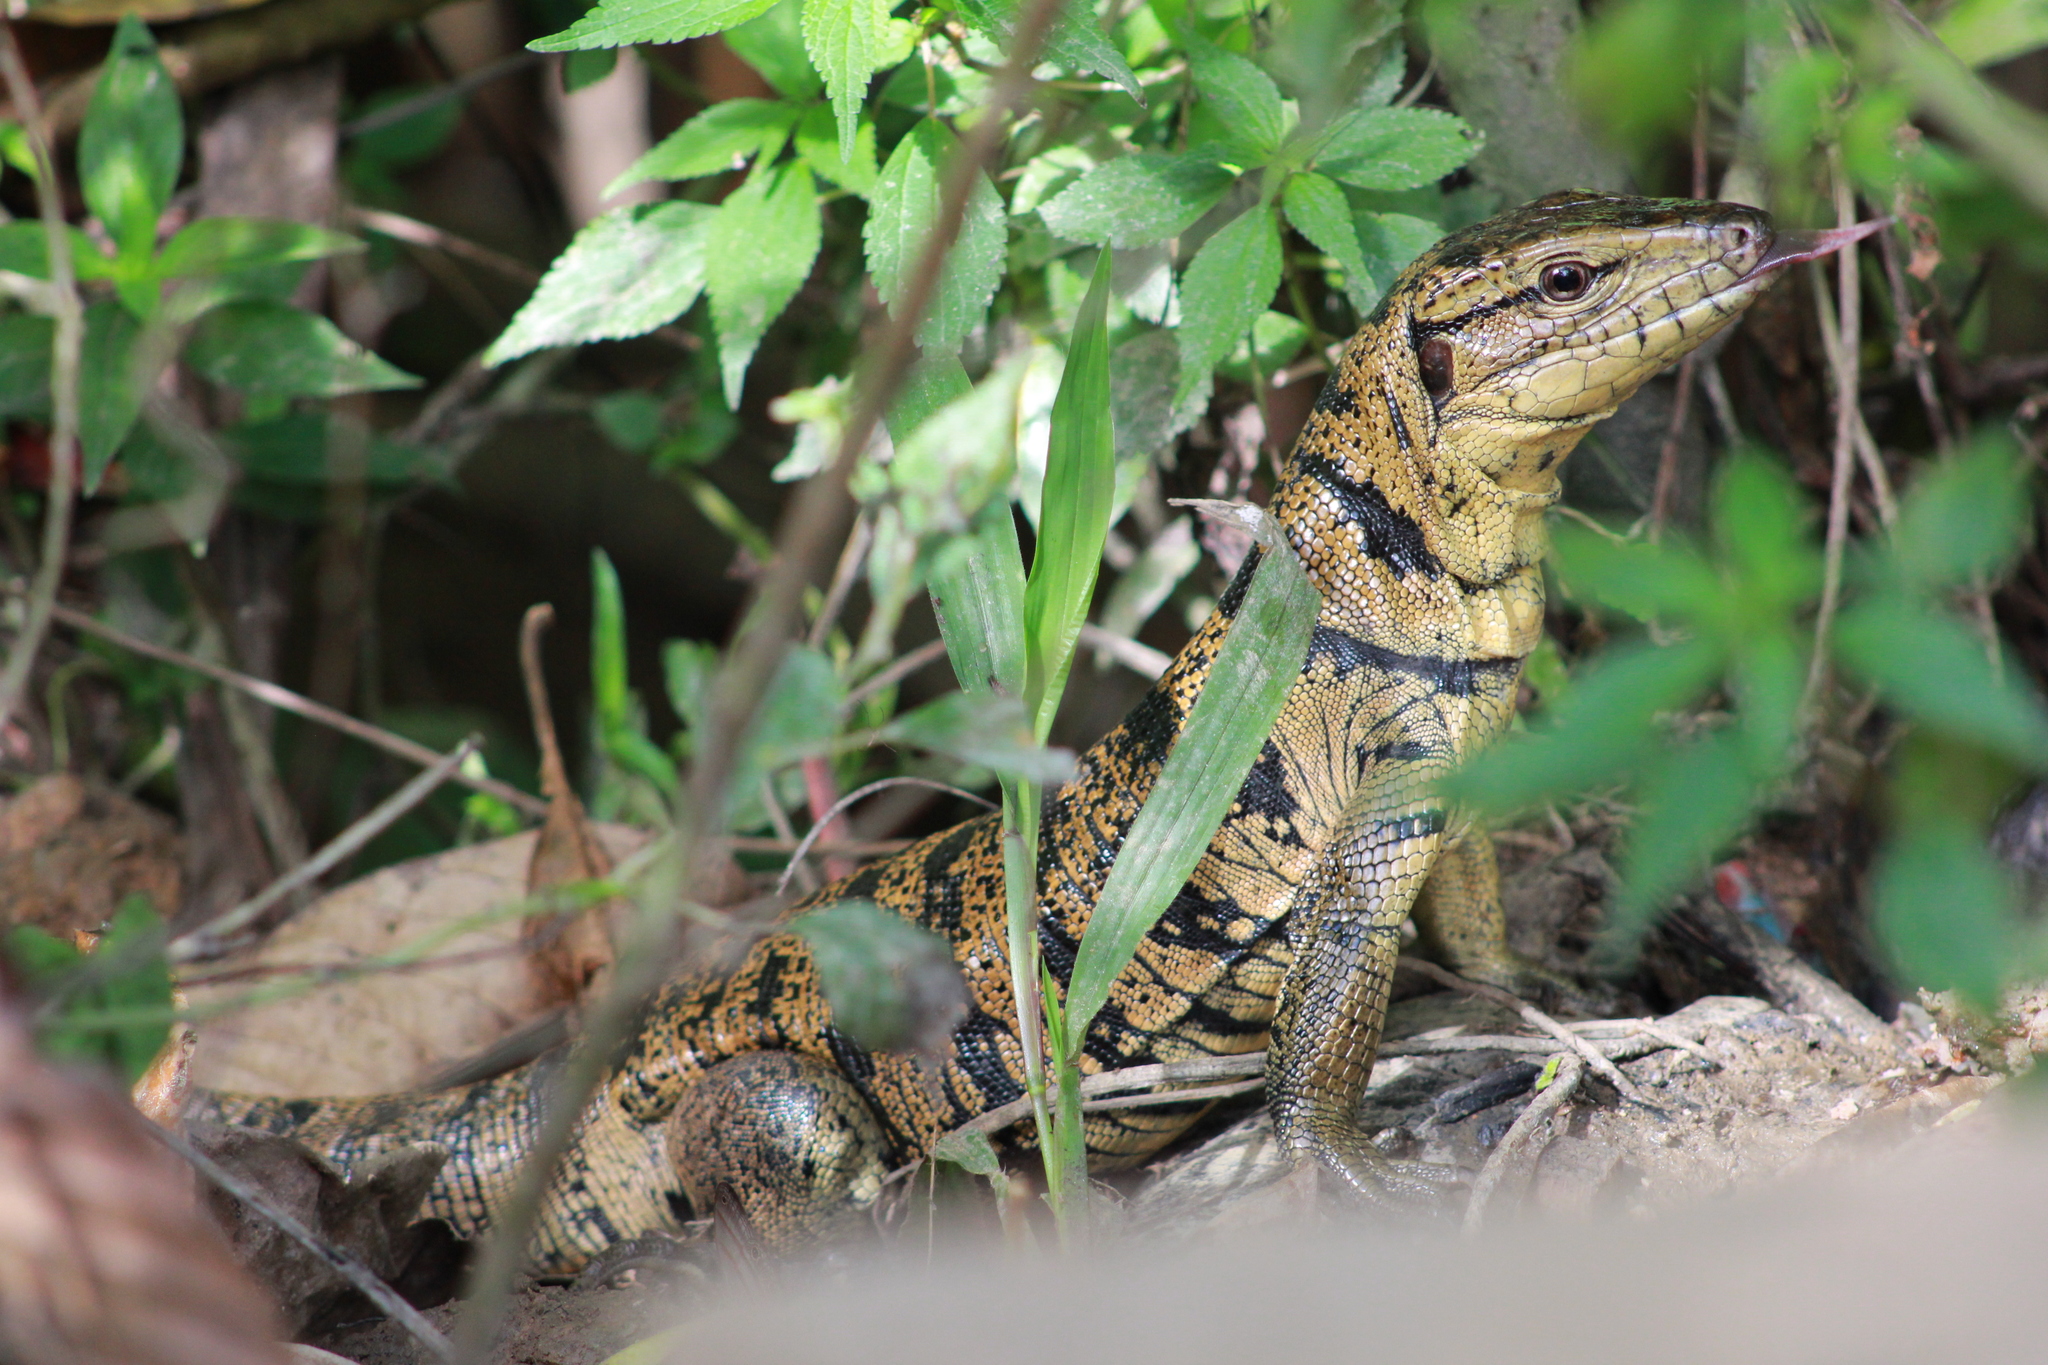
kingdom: Animalia
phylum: Chordata
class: Squamata
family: Teiidae
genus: Tupinambis
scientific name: Tupinambis cryptus
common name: Cryptic golden tegu
